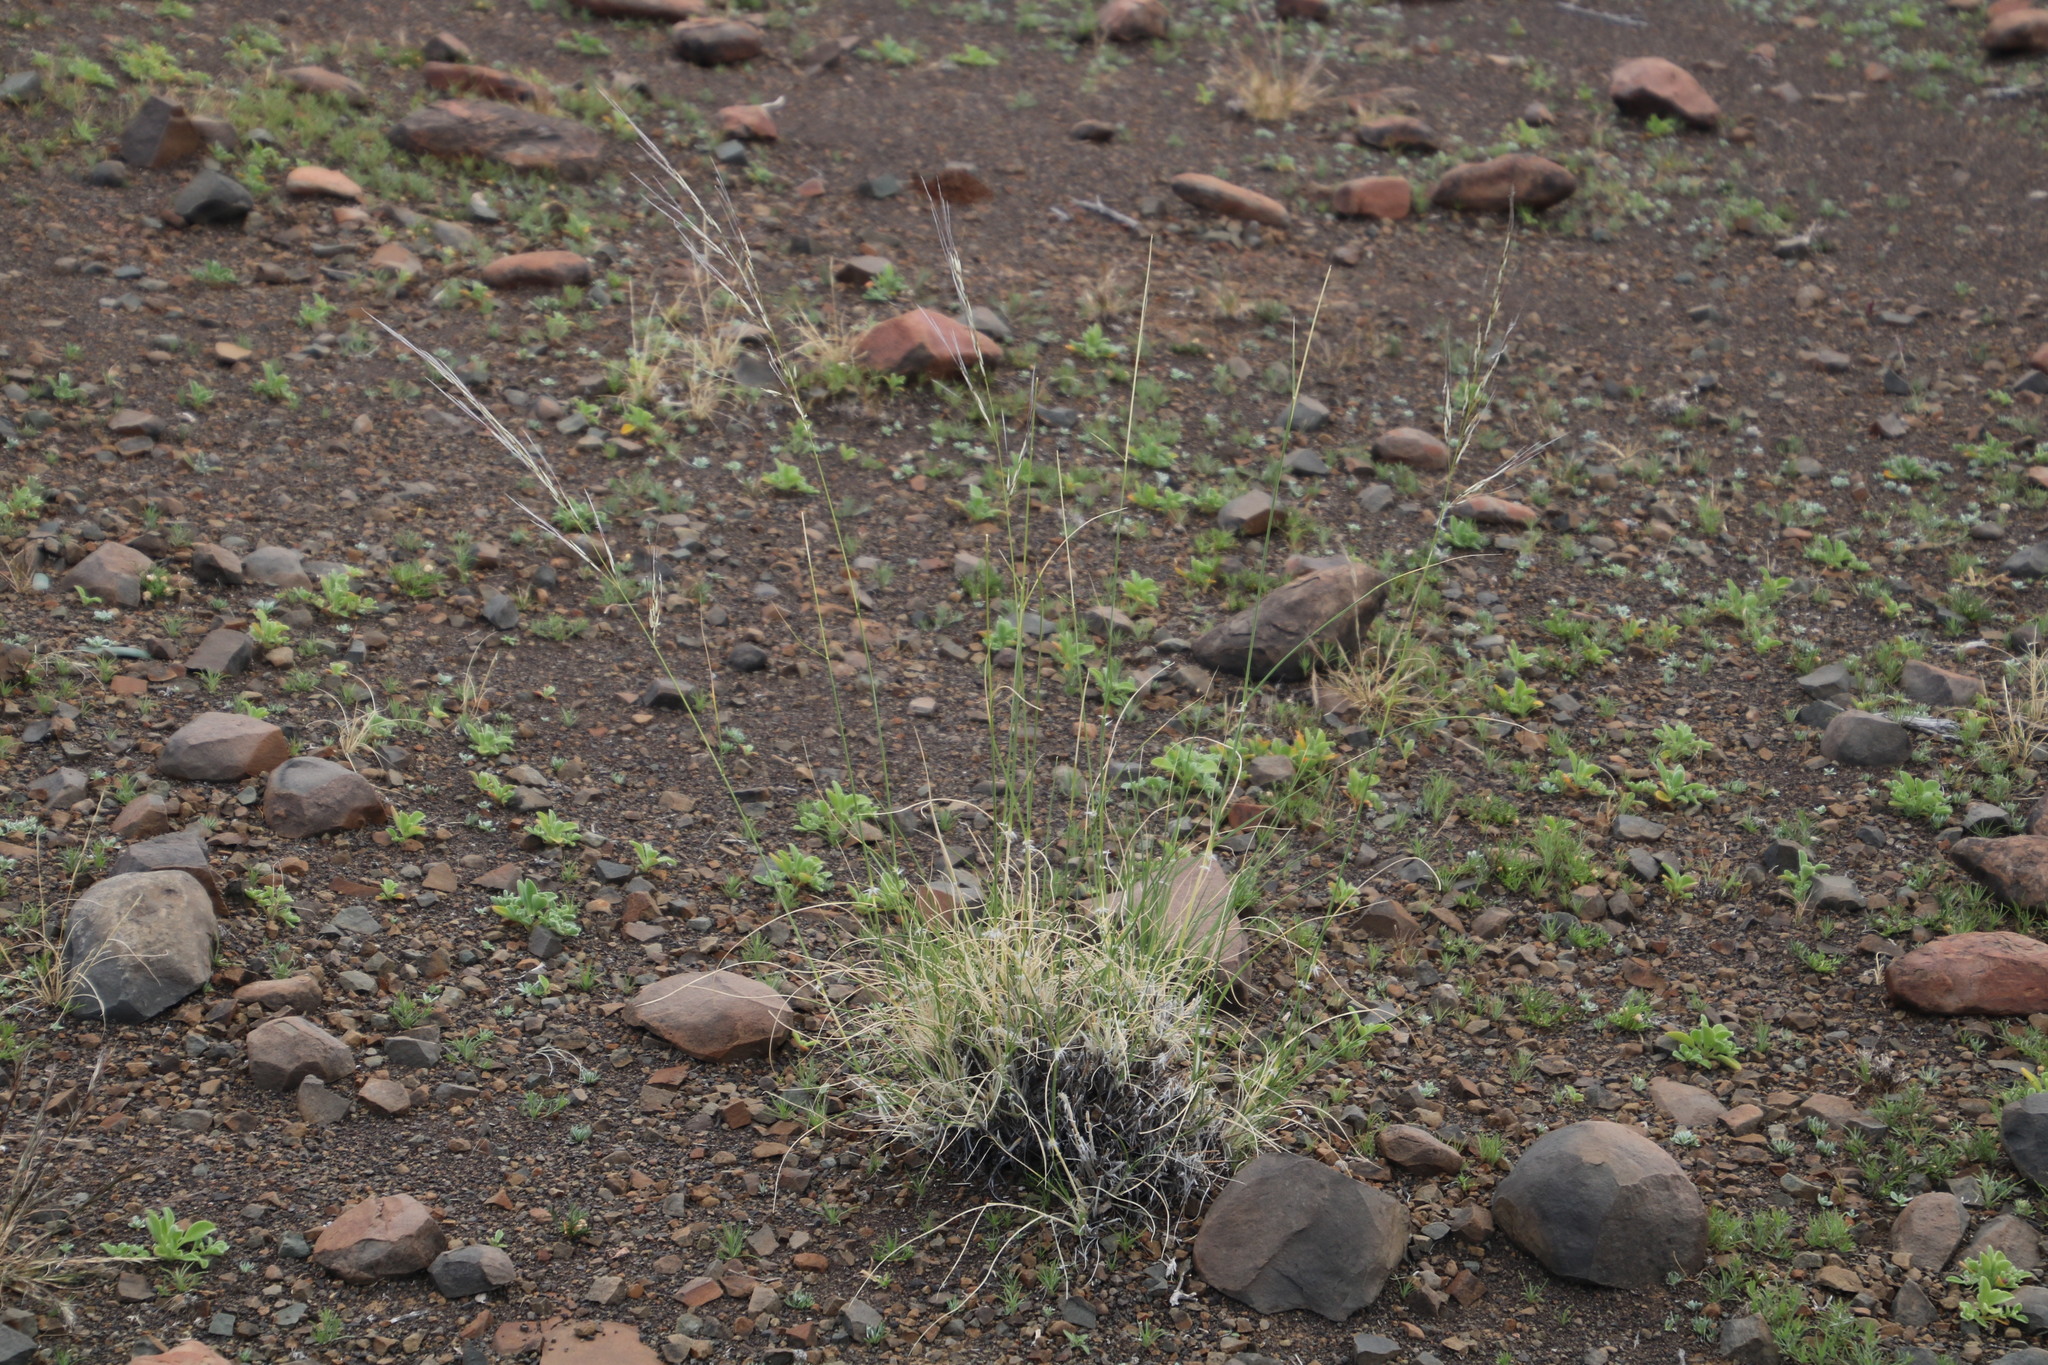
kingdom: Plantae
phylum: Tracheophyta
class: Liliopsida
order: Poales
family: Poaceae
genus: Stipagrostis
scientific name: Stipagrostis ciliata
